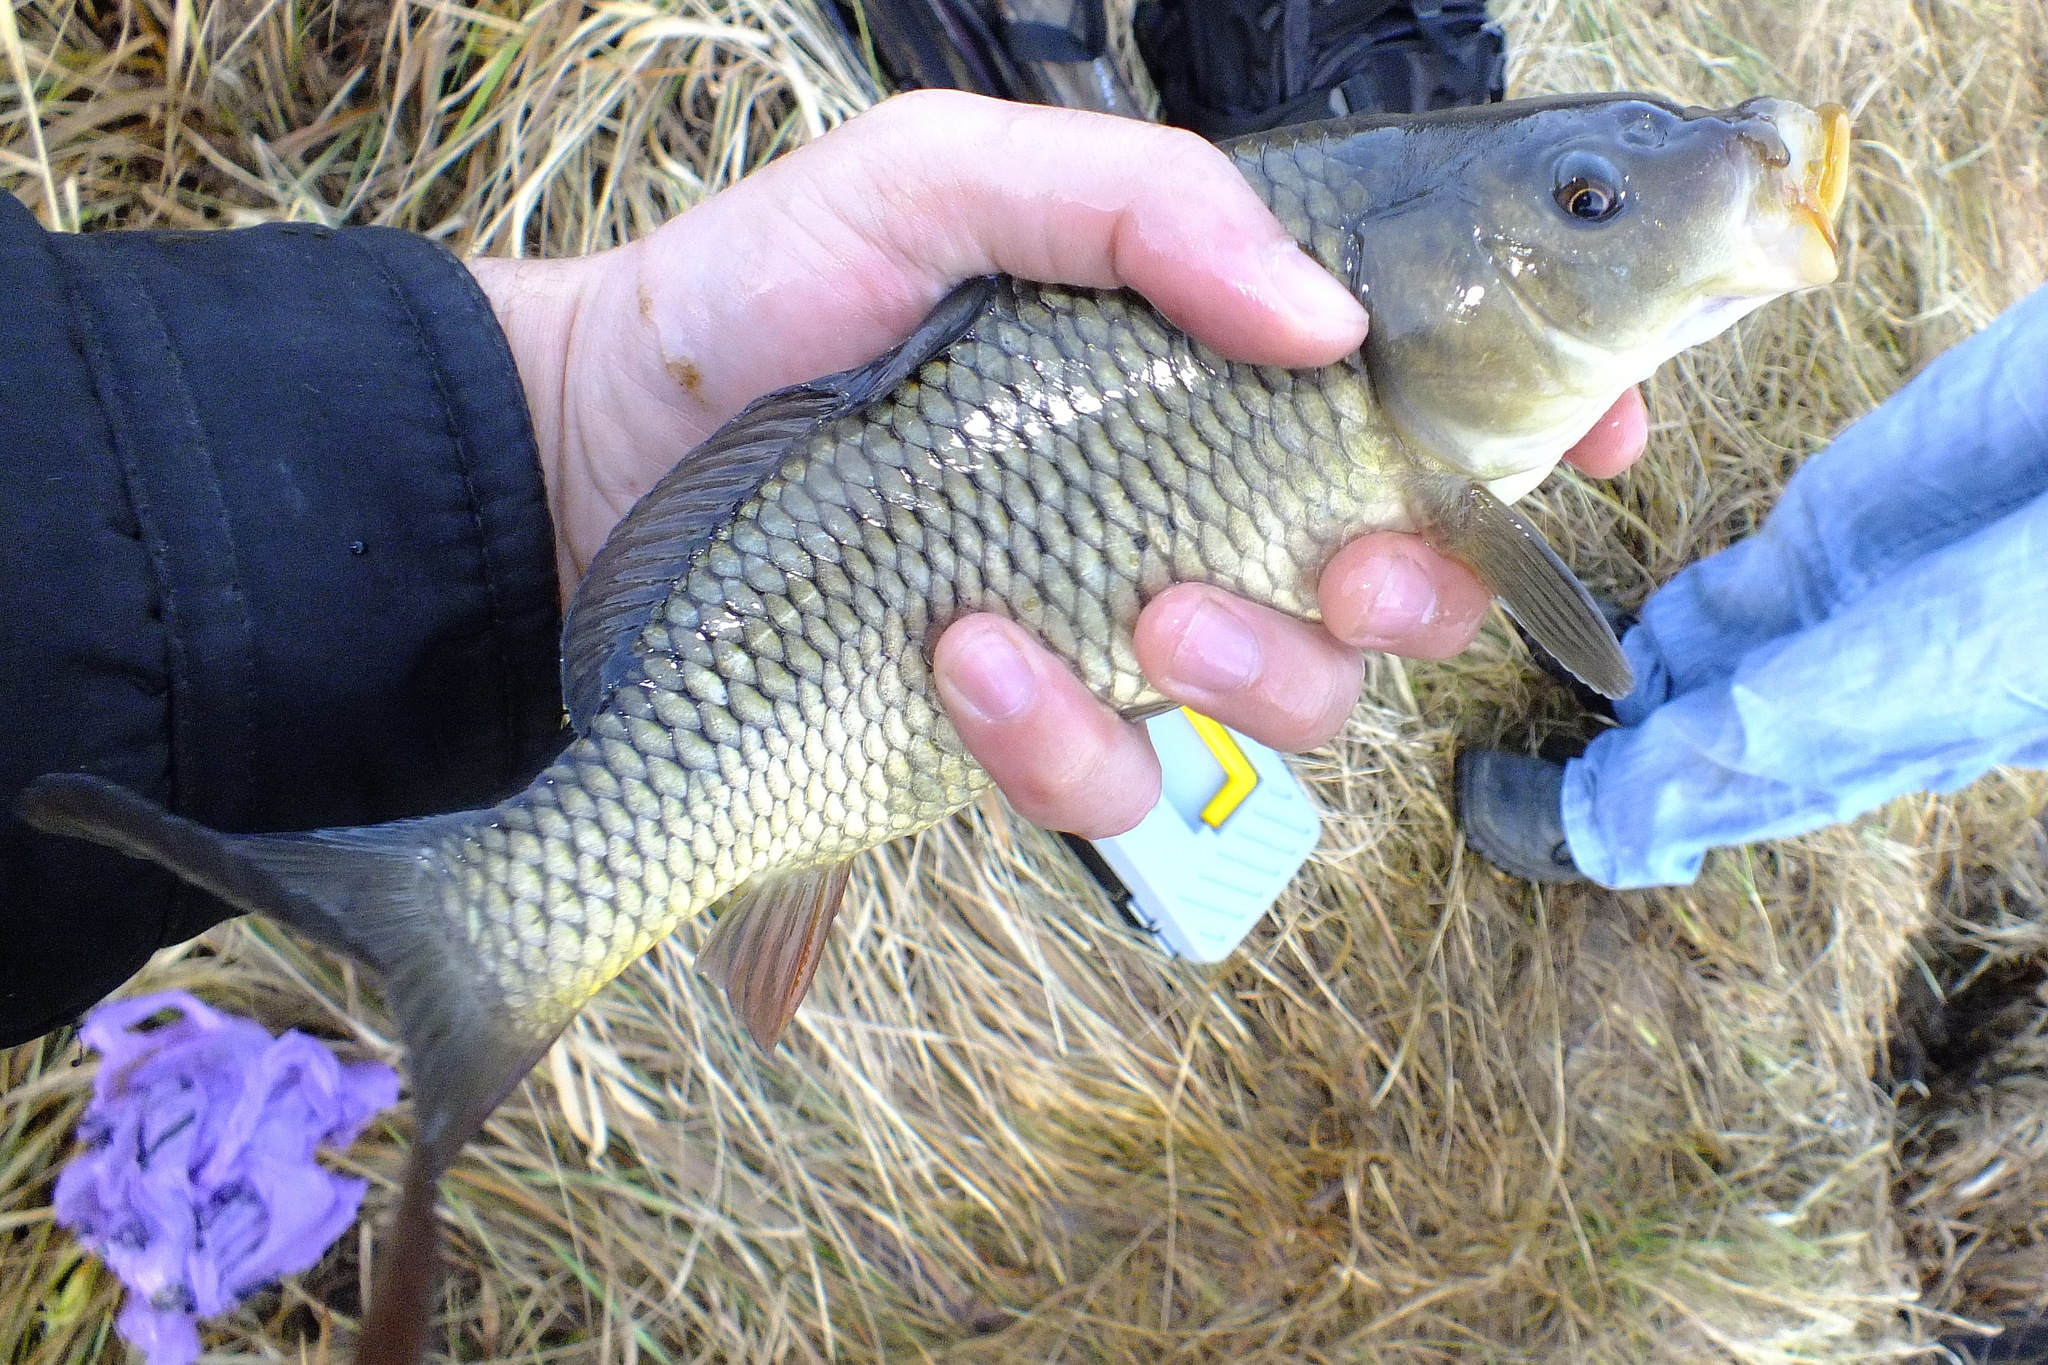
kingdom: Animalia
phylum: Chordata
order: Cypriniformes
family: Cyprinidae
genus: Cyprinus
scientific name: Cyprinus carpio
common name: Common carp
